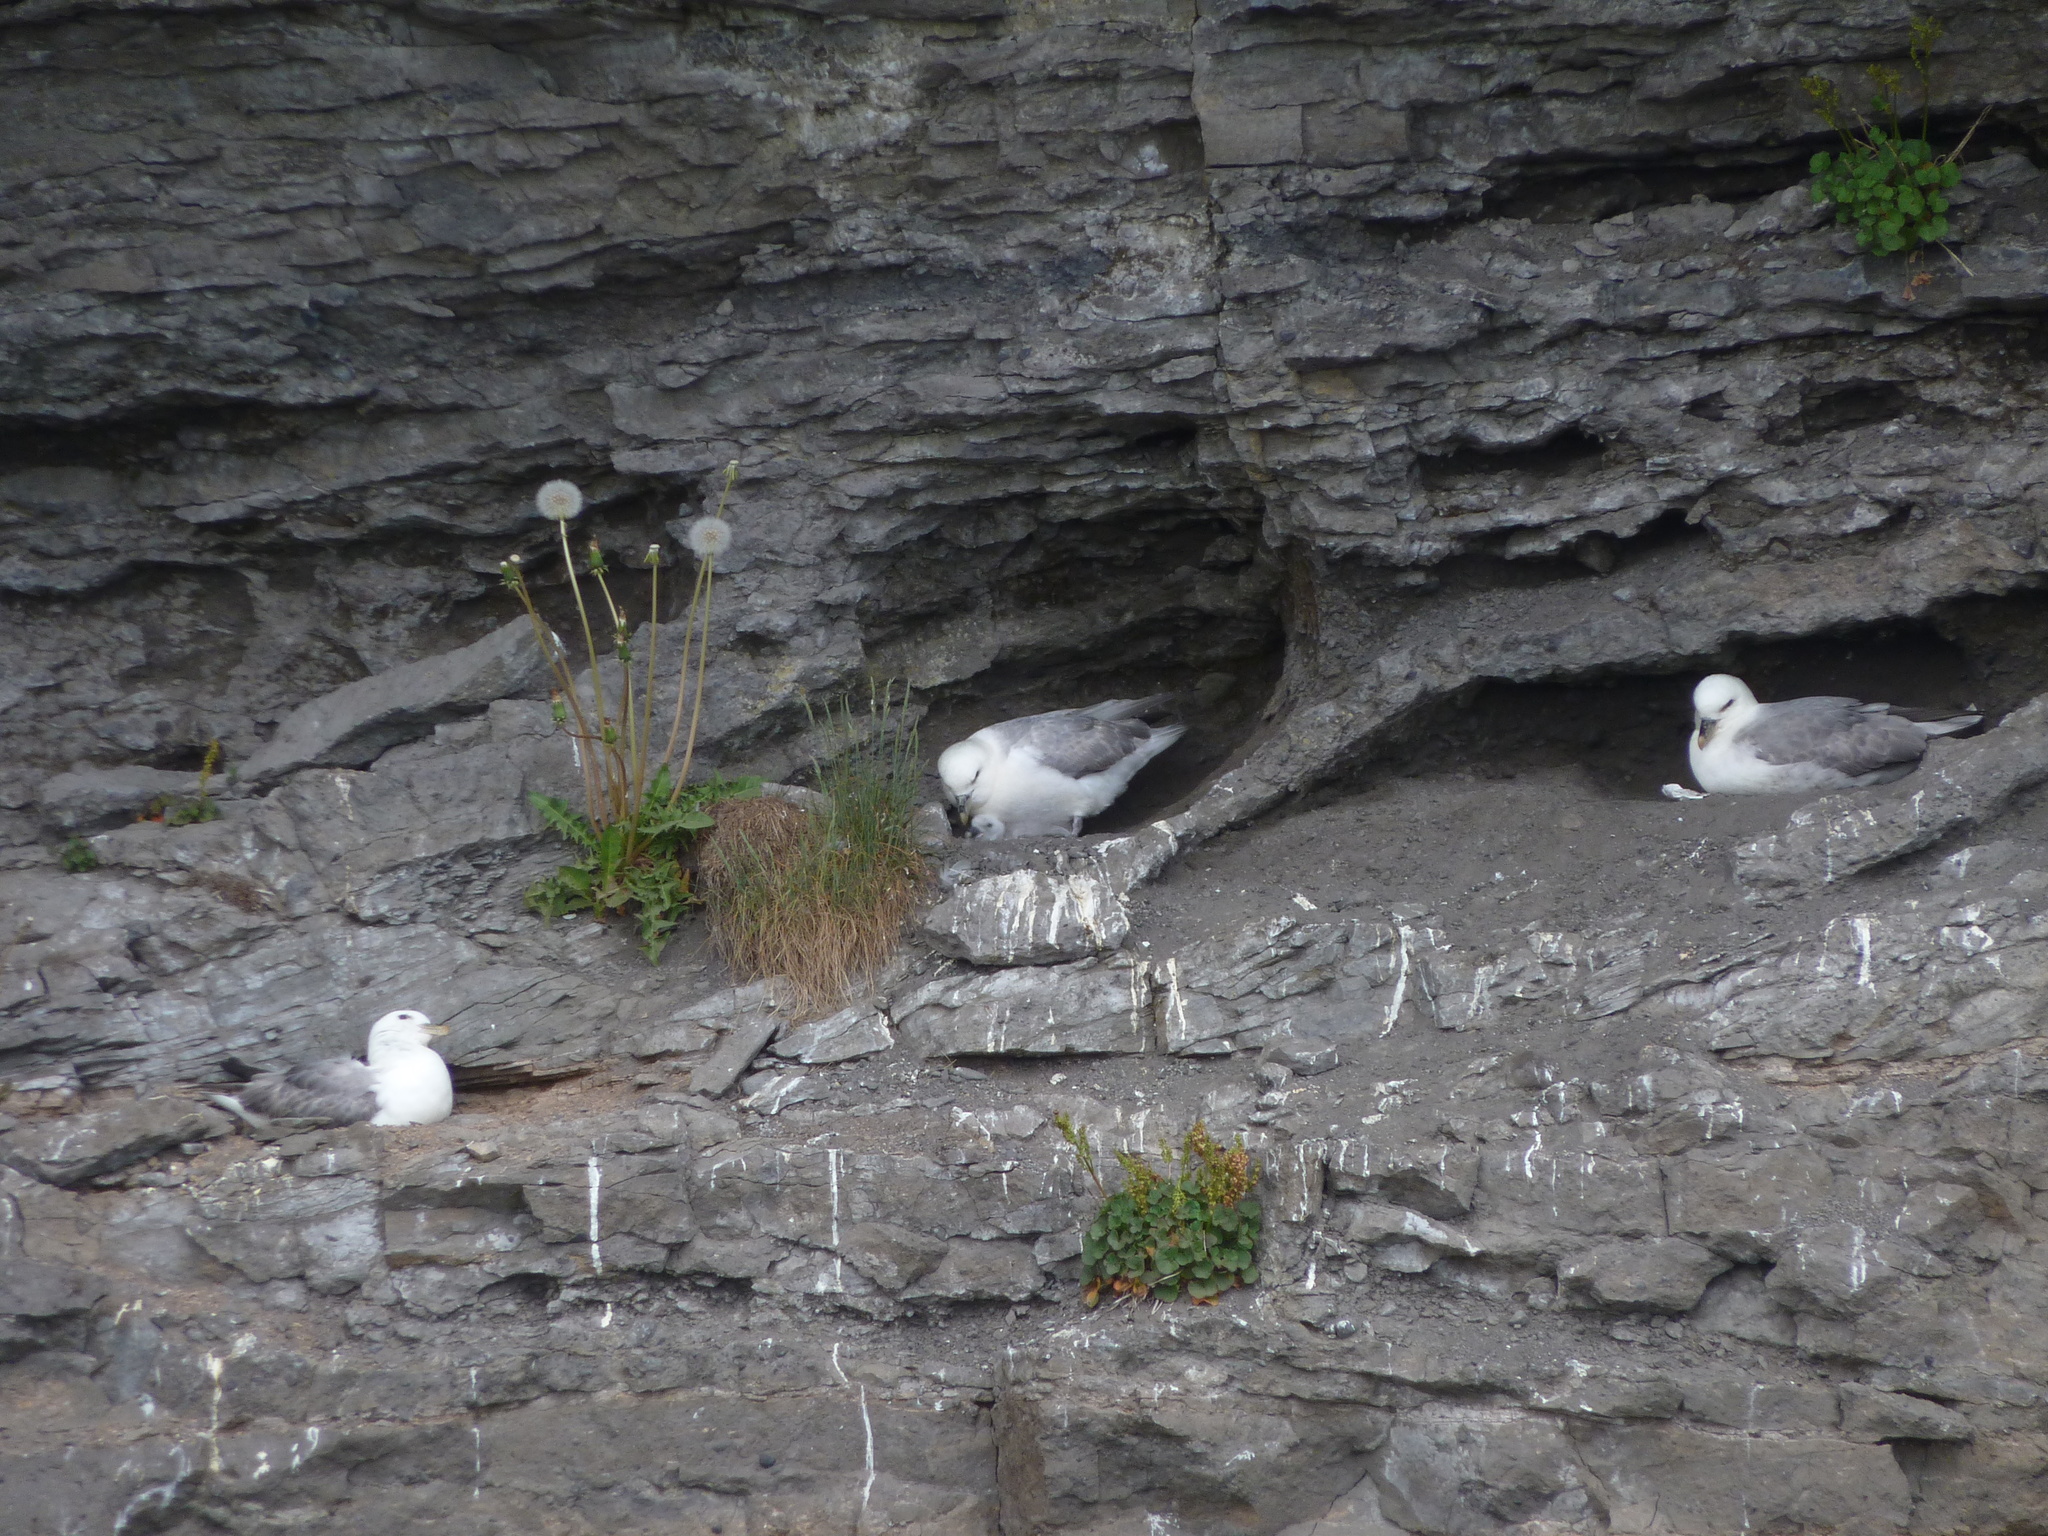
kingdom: Animalia
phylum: Chordata
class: Aves
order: Procellariiformes
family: Procellariidae
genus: Fulmarus
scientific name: Fulmarus glacialis
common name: Northern fulmar
